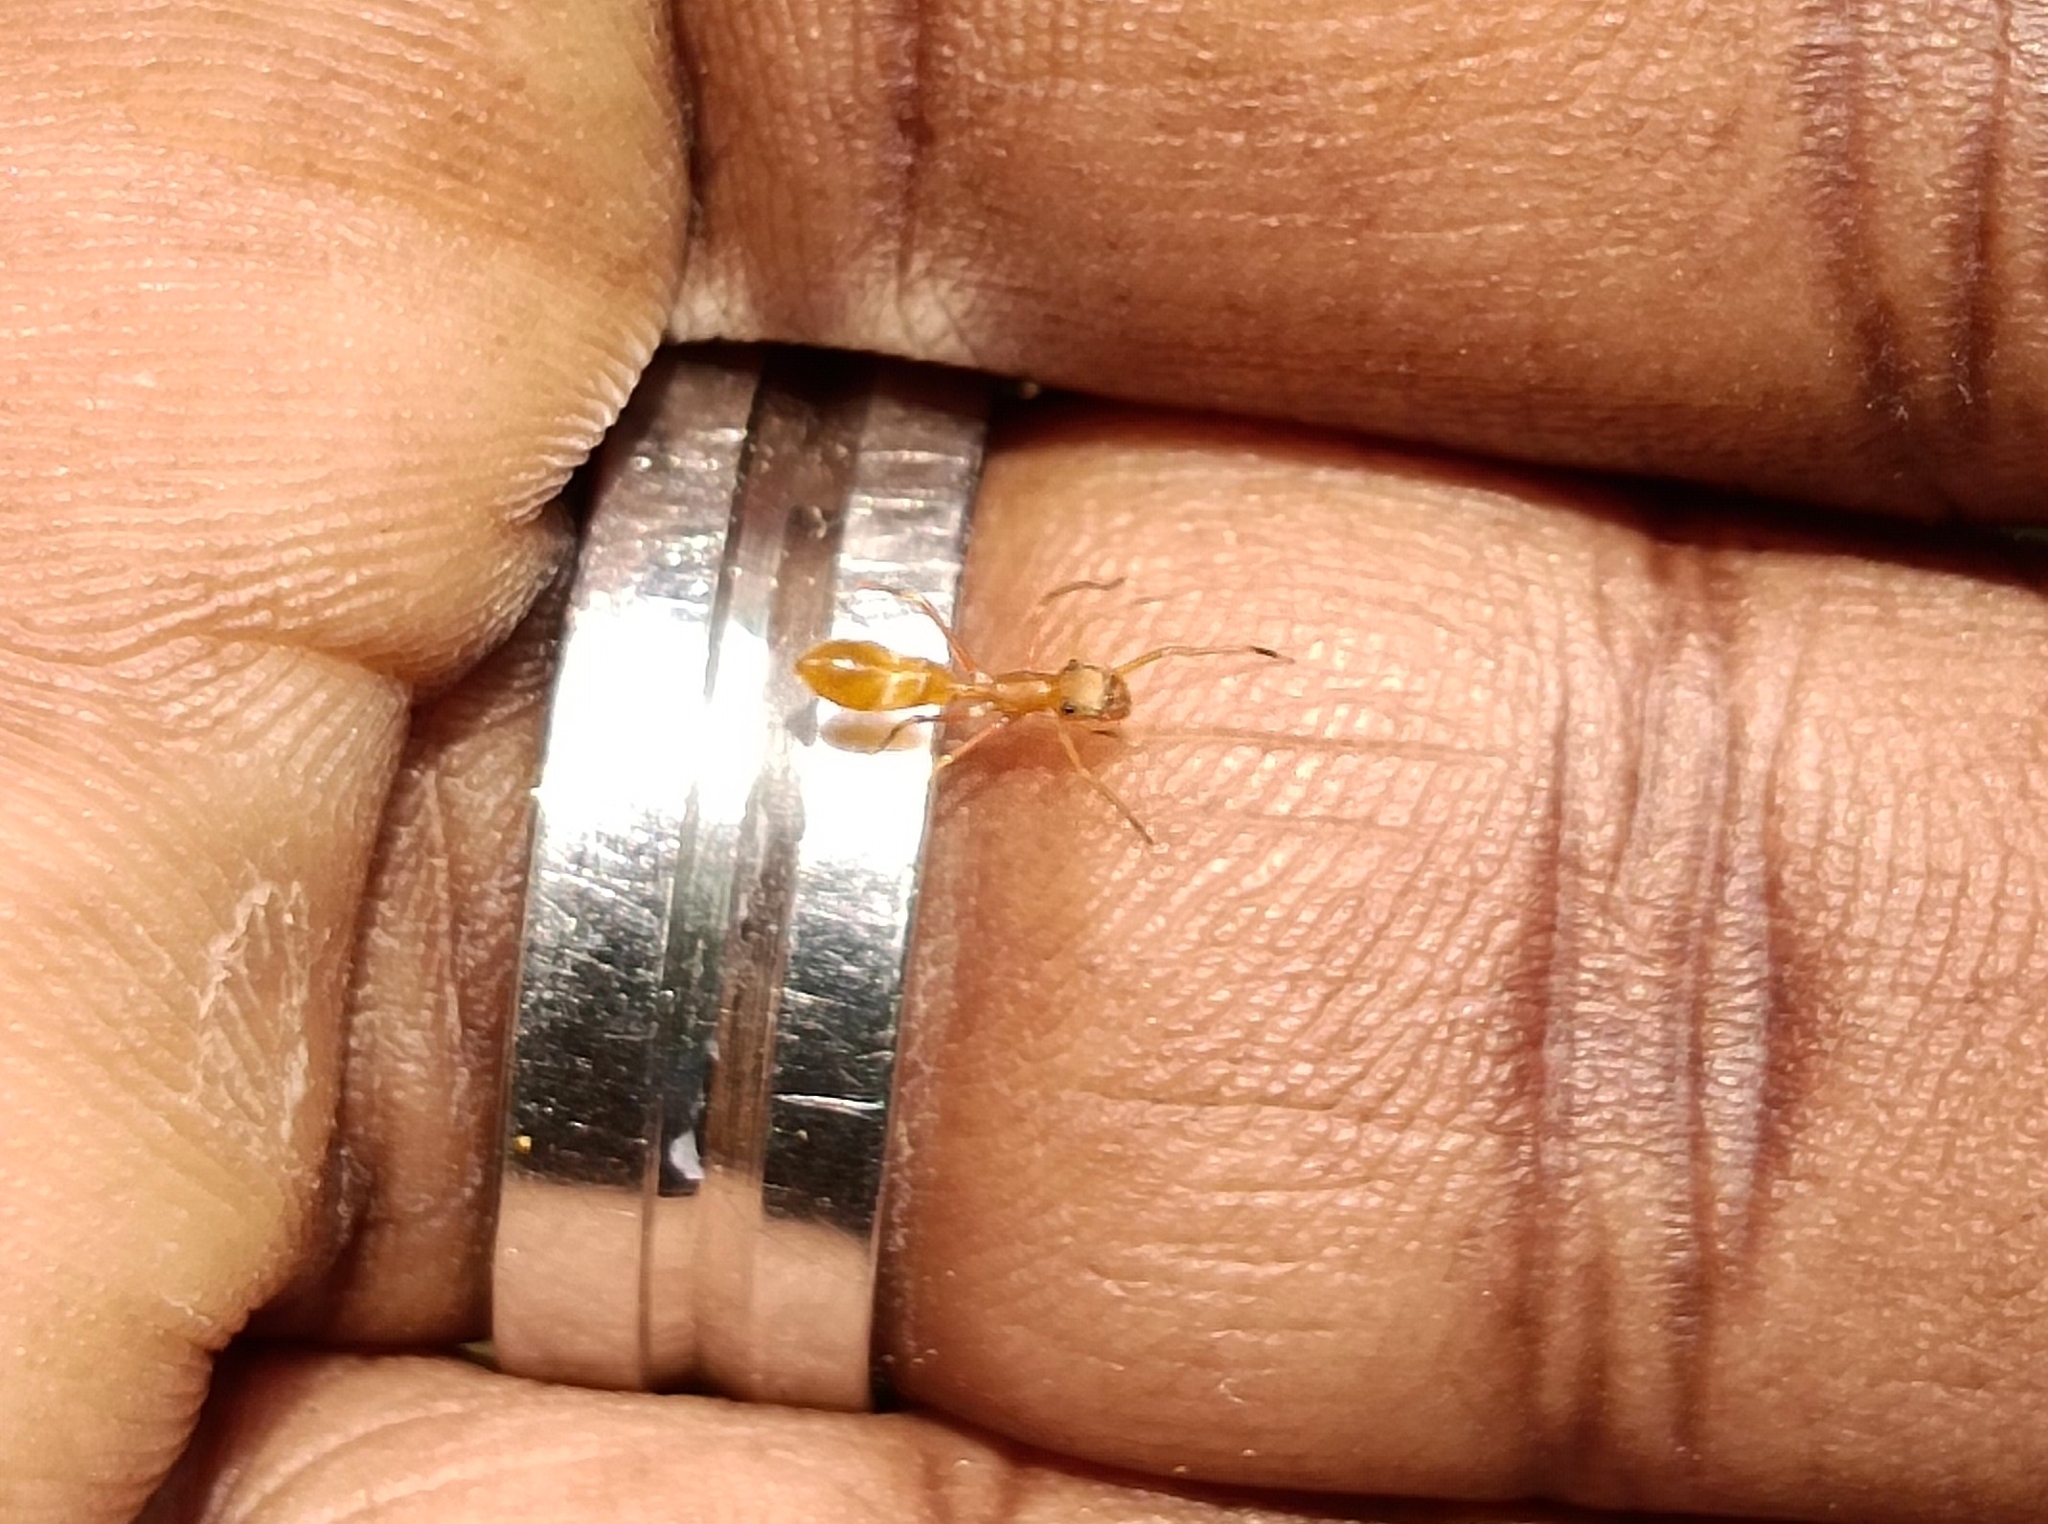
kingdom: Animalia
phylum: Arthropoda
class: Arachnida
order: Araneae
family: Salticidae
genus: Myrmaplata
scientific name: Myrmaplata plataleoides
